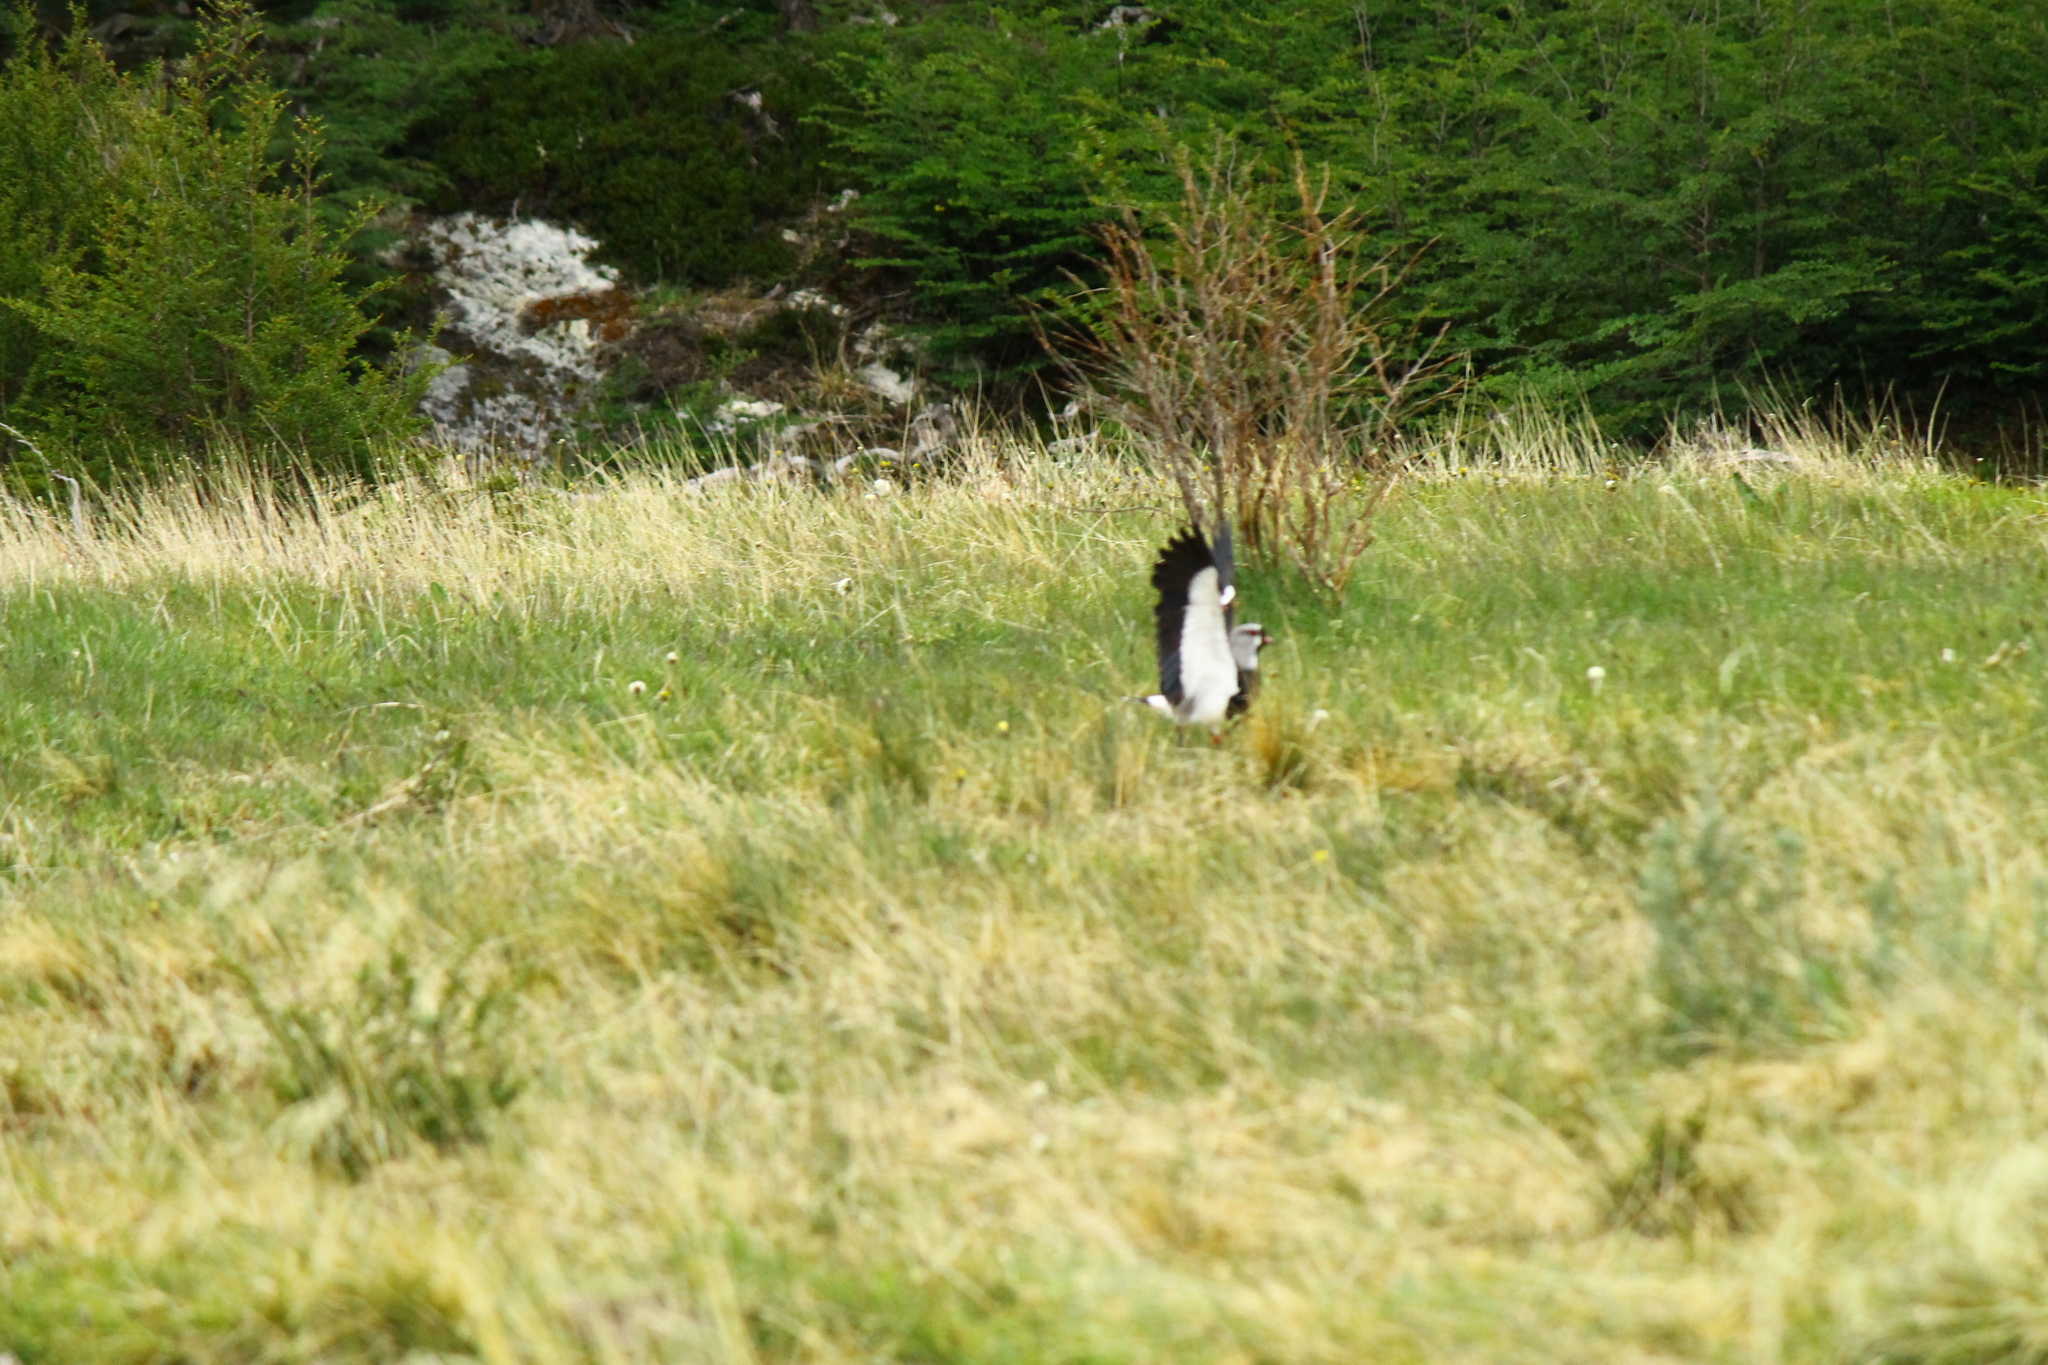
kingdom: Animalia
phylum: Chordata
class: Aves
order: Charadriiformes
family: Charadriidae
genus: Vanellus
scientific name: Vanellus chilensis
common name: Southern lapwing
